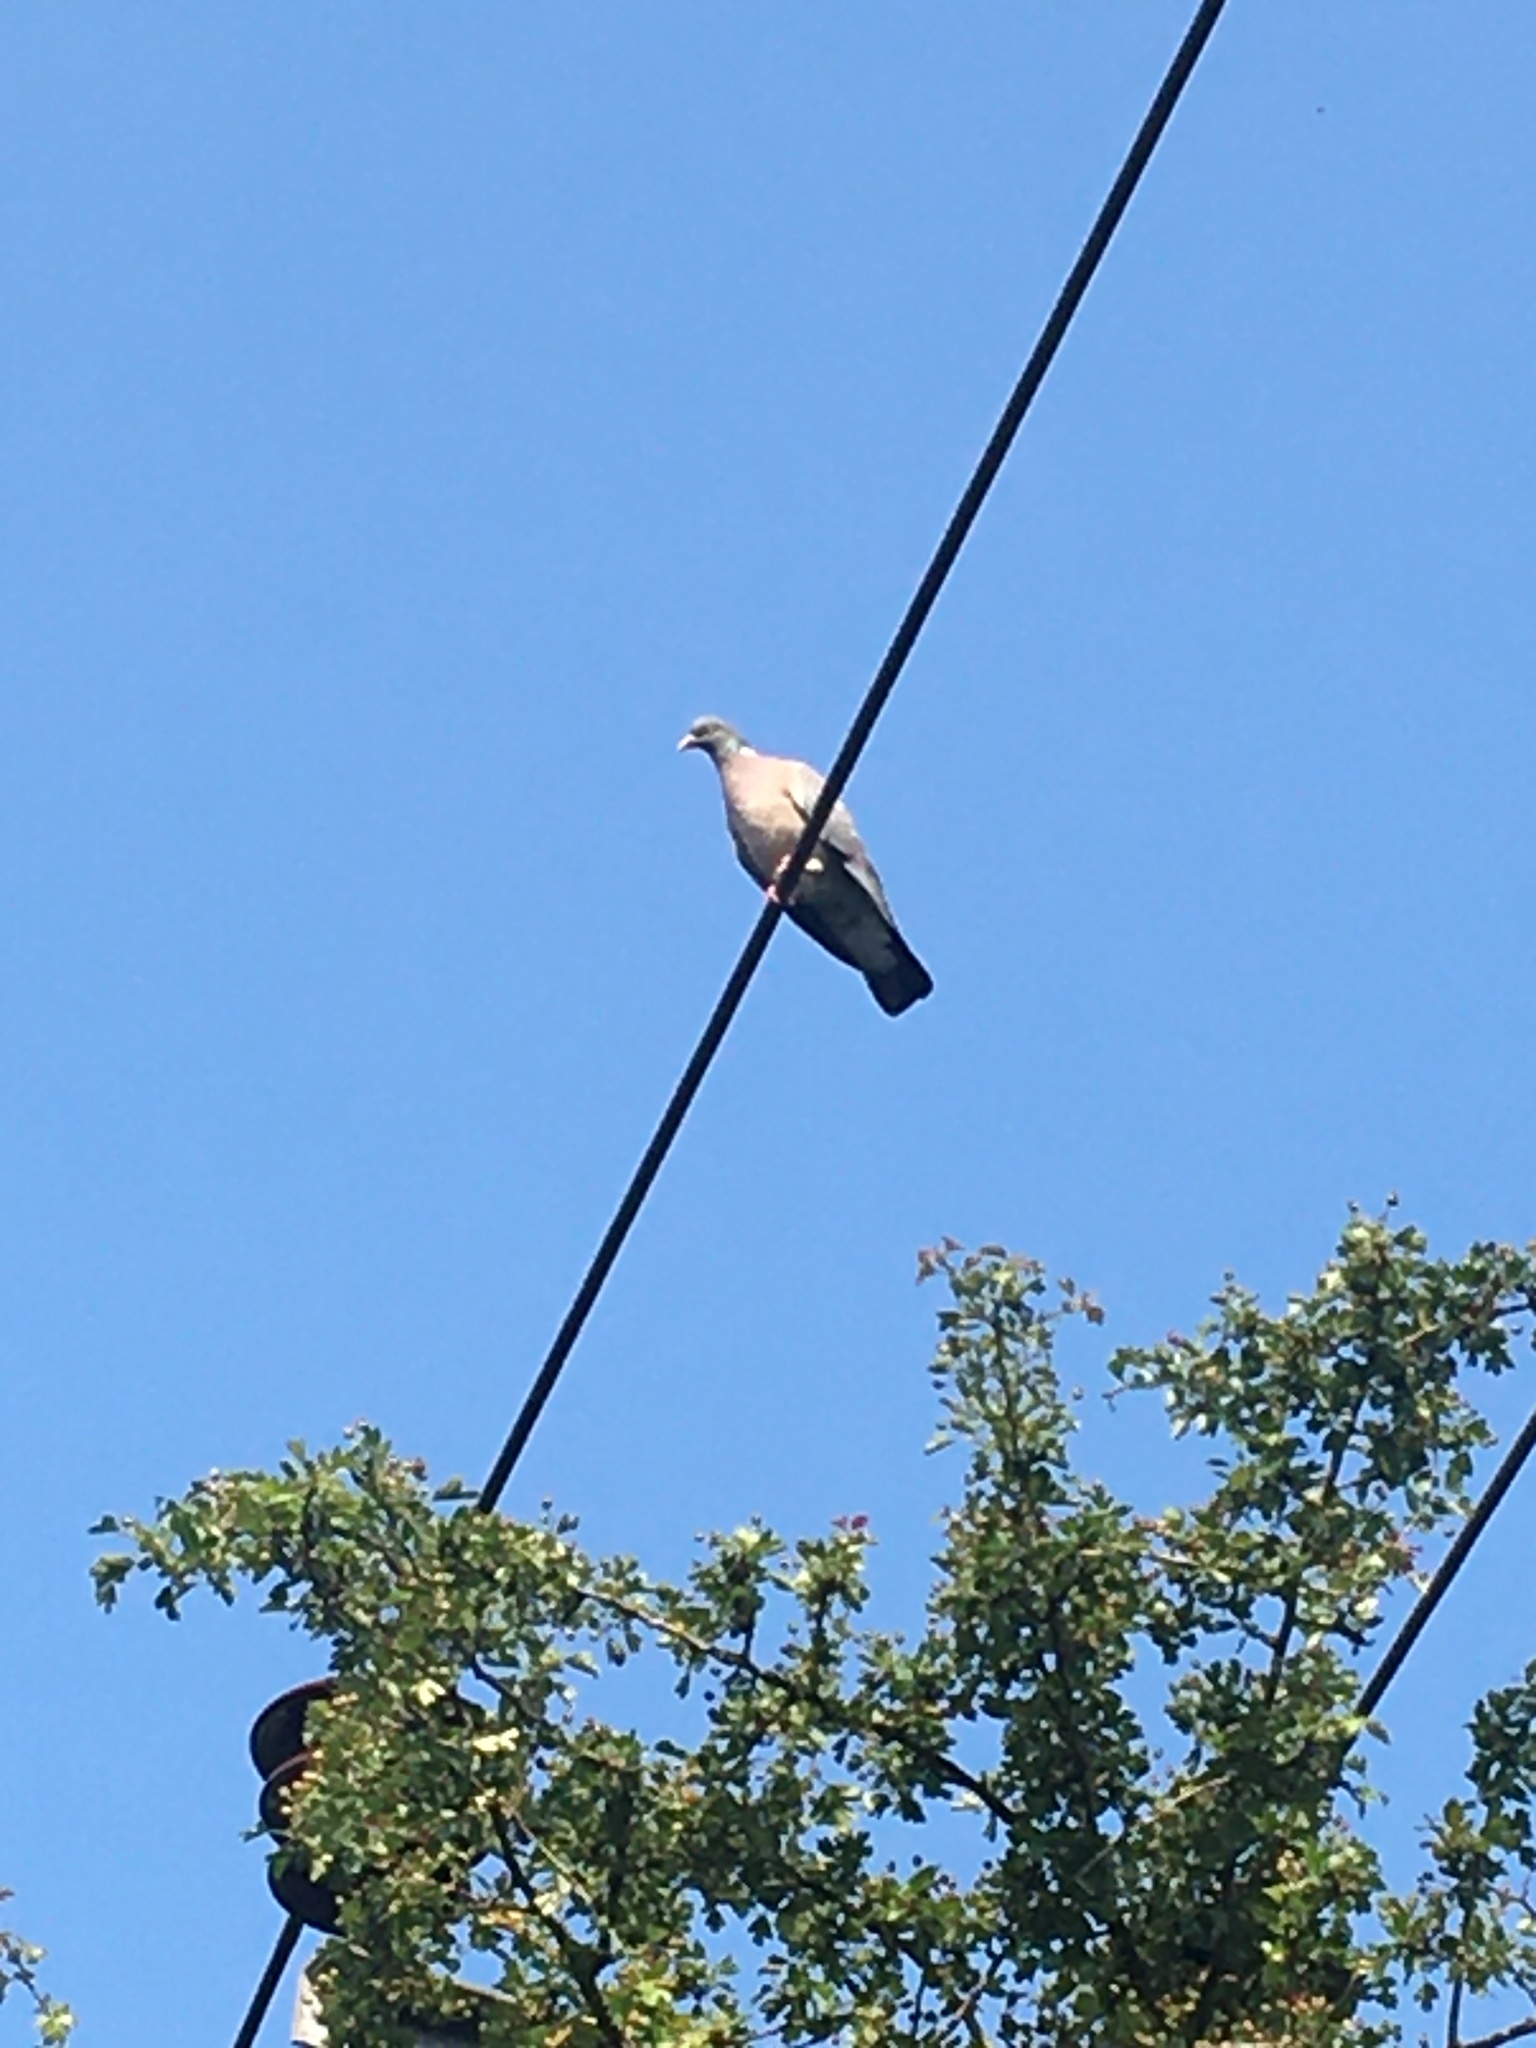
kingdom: Animalia
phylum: Chordata
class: Aves
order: Columbiformes
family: Columbidae
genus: Columba
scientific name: Columba palumbus
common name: Common wood pigeon
